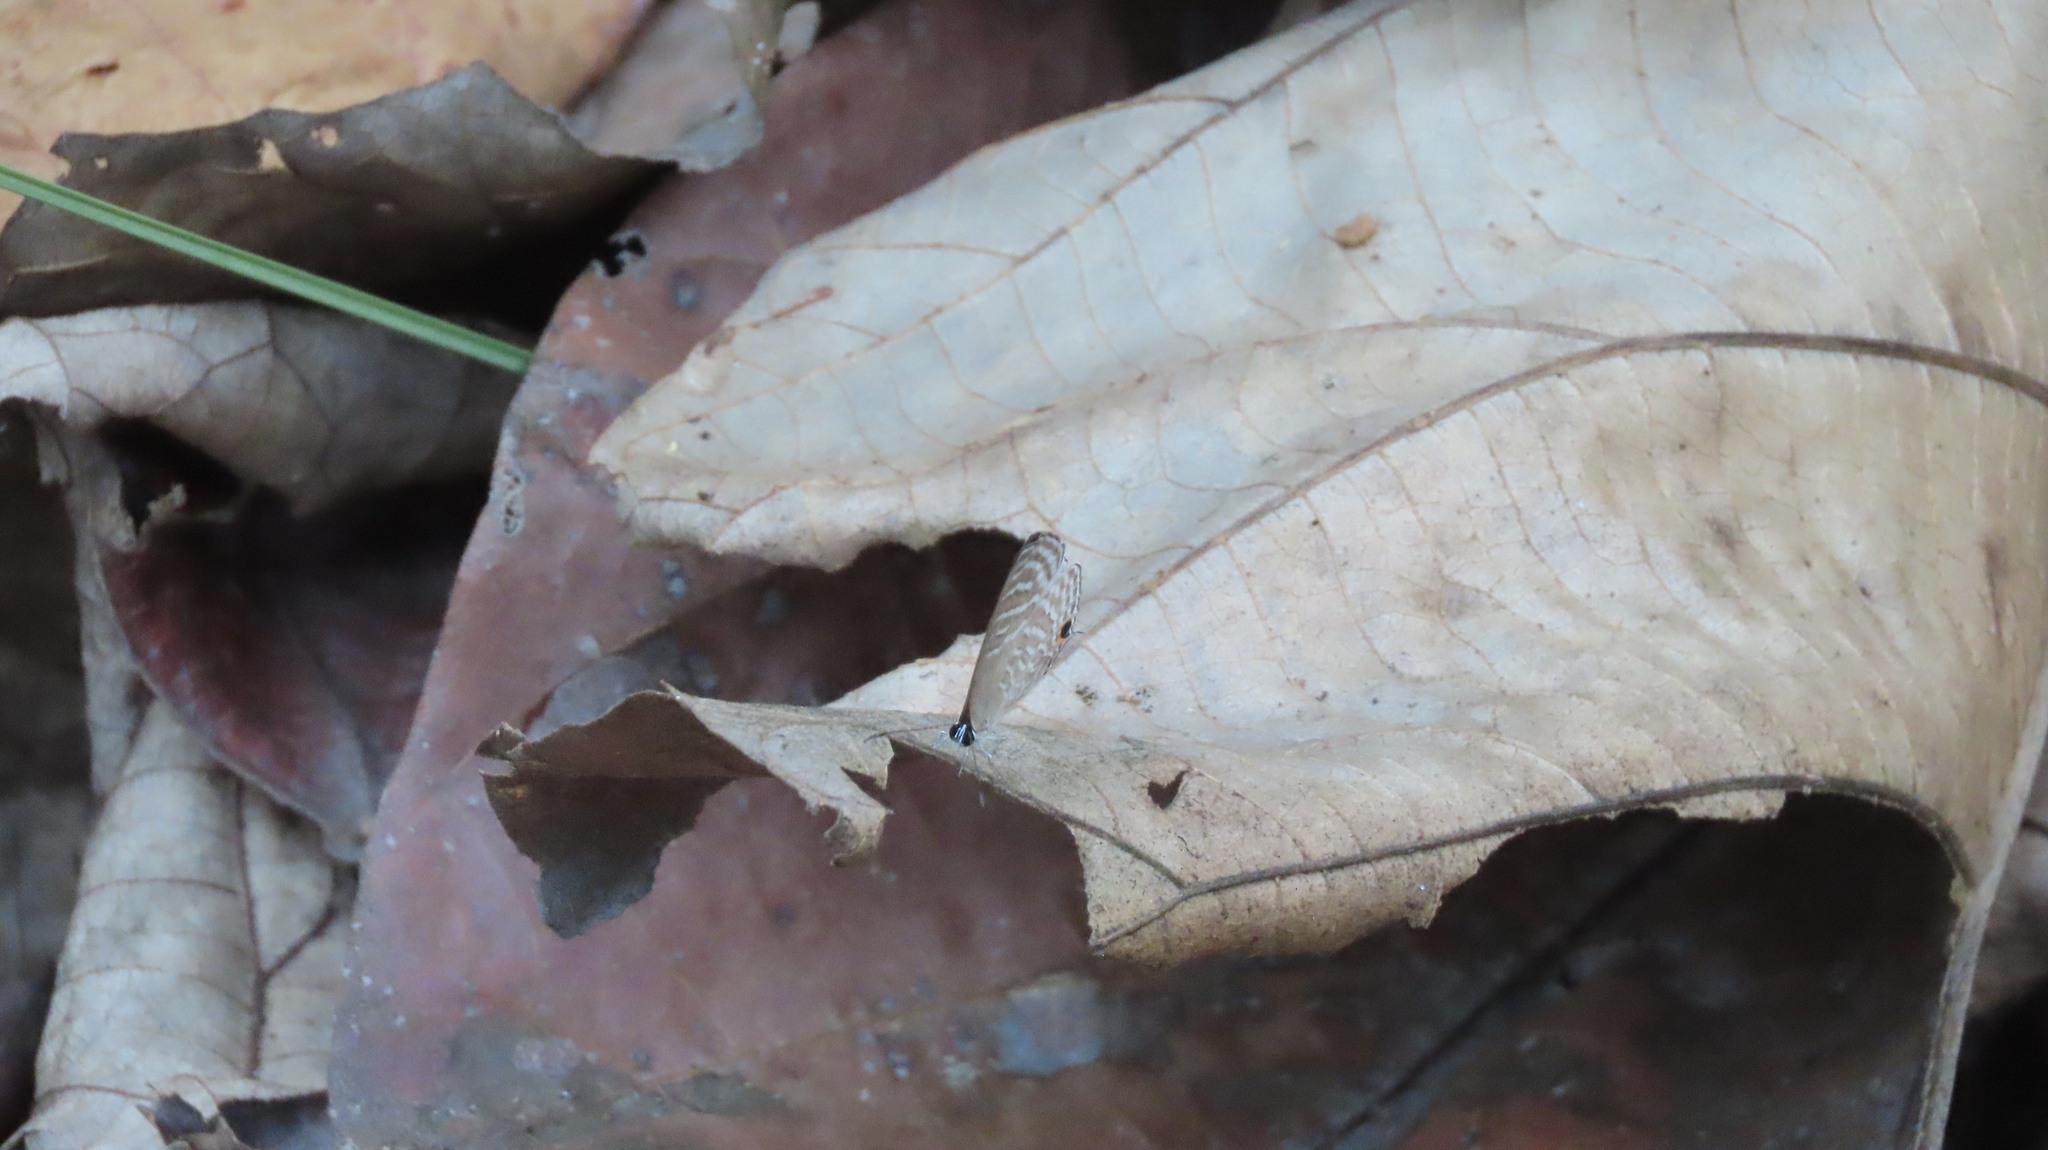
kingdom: Animalia
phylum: Arthropoda
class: Insecta
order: Lepidoptera
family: Lycaenidae
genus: Jamides
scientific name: Jamides celeno
